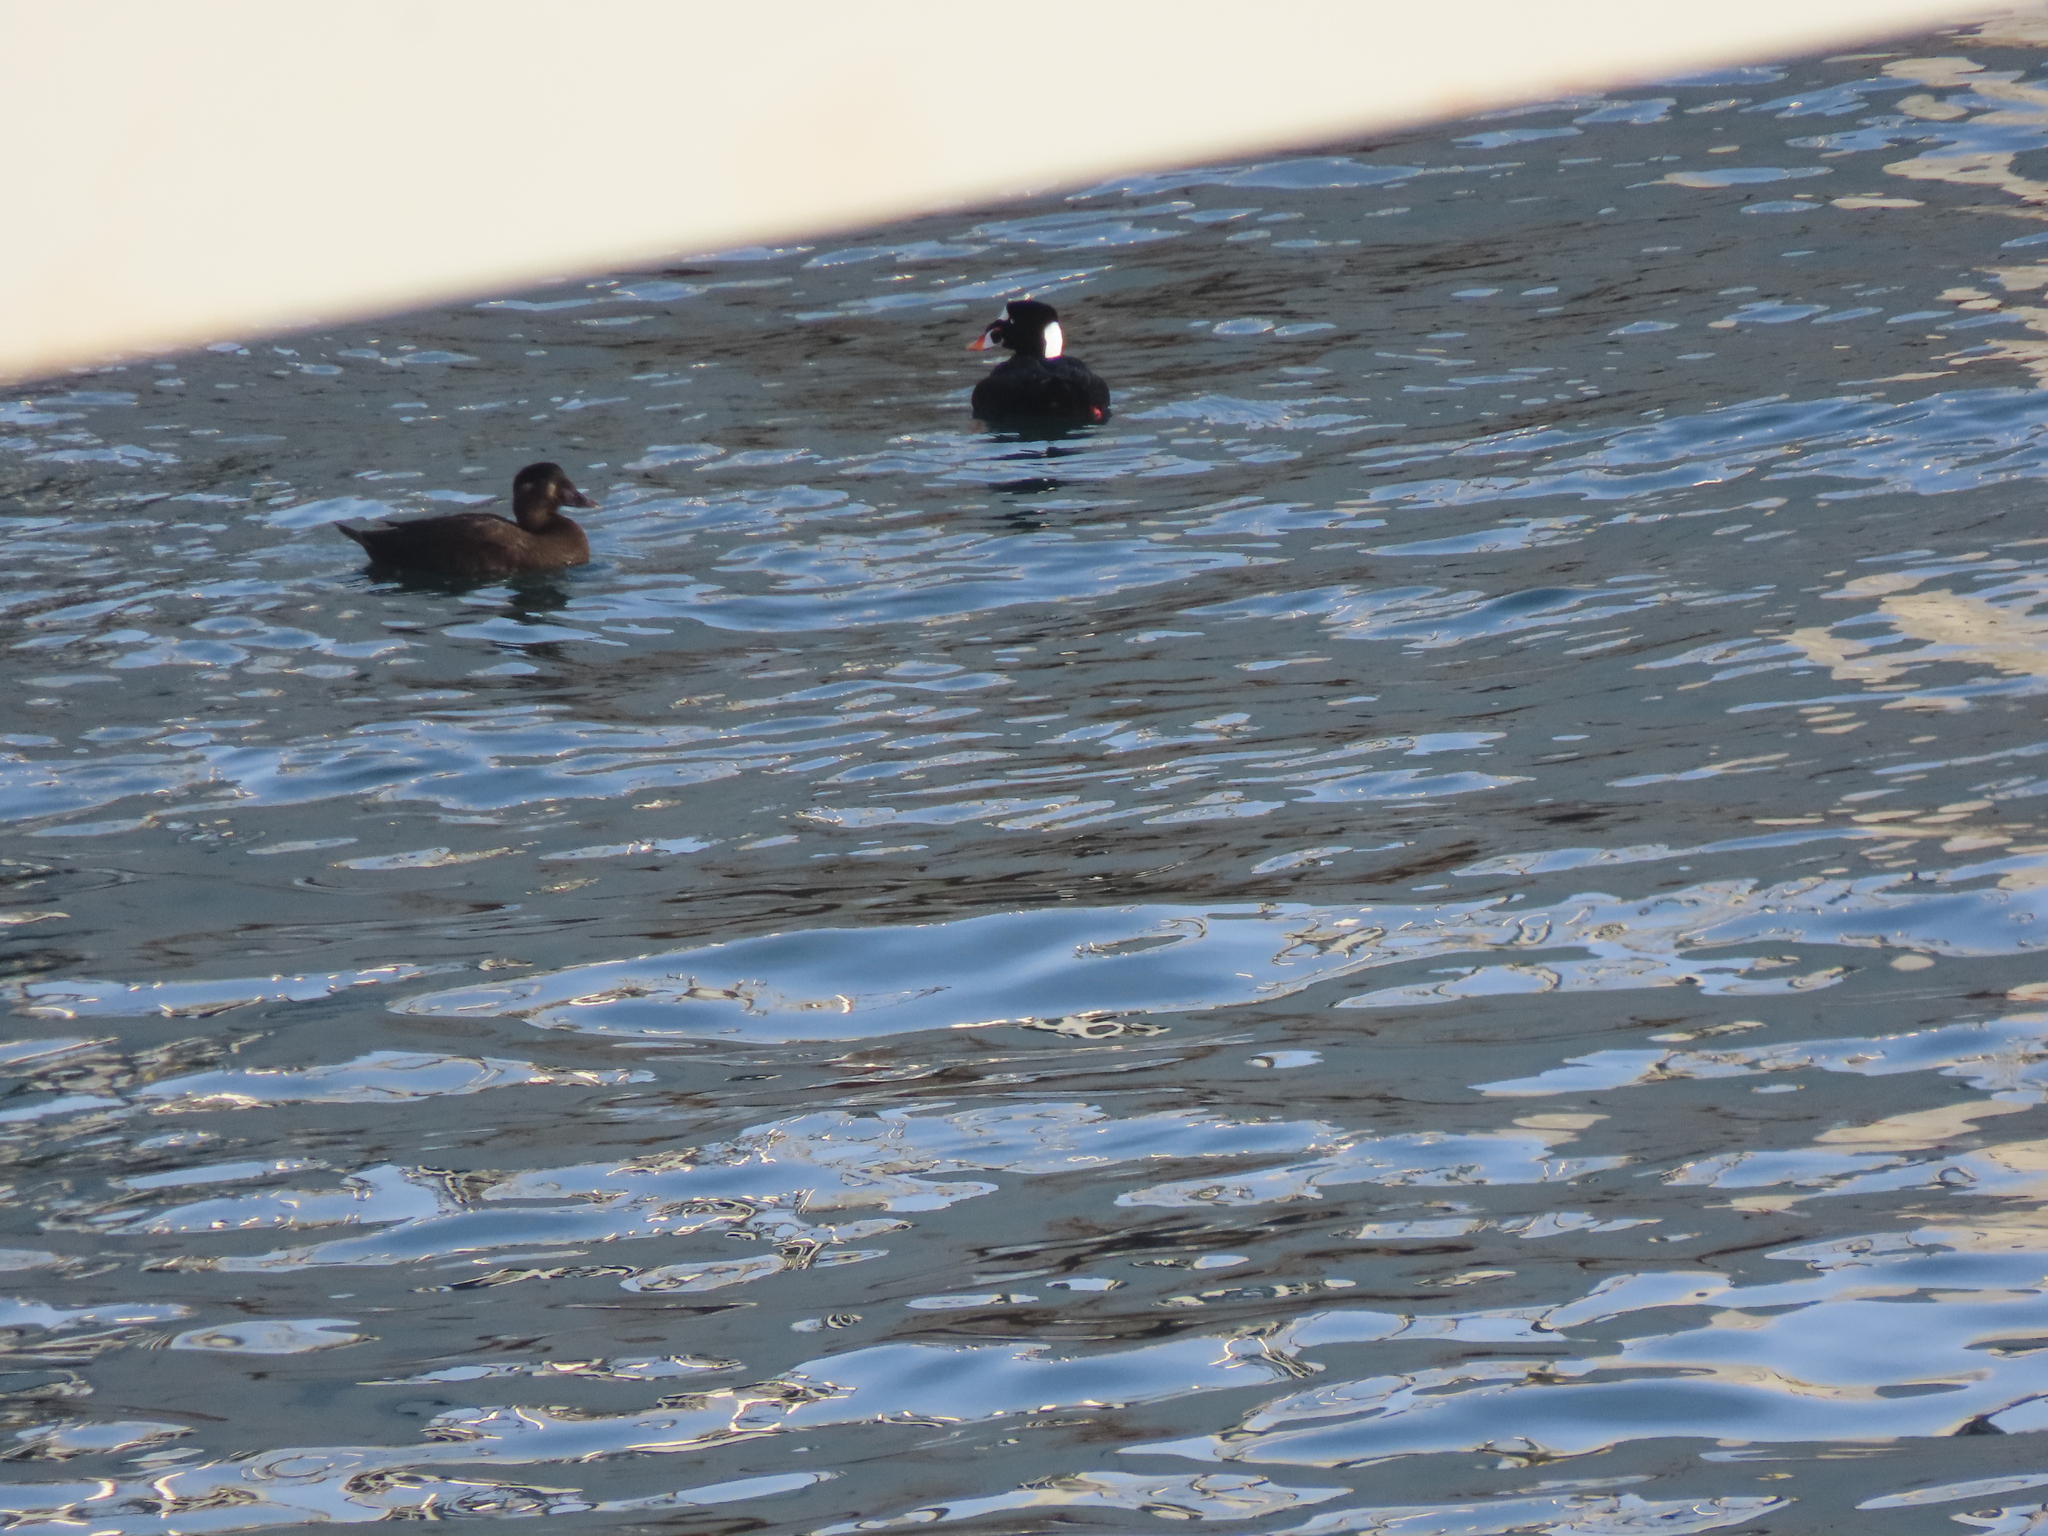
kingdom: Animalia
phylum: Chordata
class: Aves
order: Anseriformes
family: Anatidae
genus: Melanitta
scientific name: Melanitta perspicillata
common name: Surf scoter
